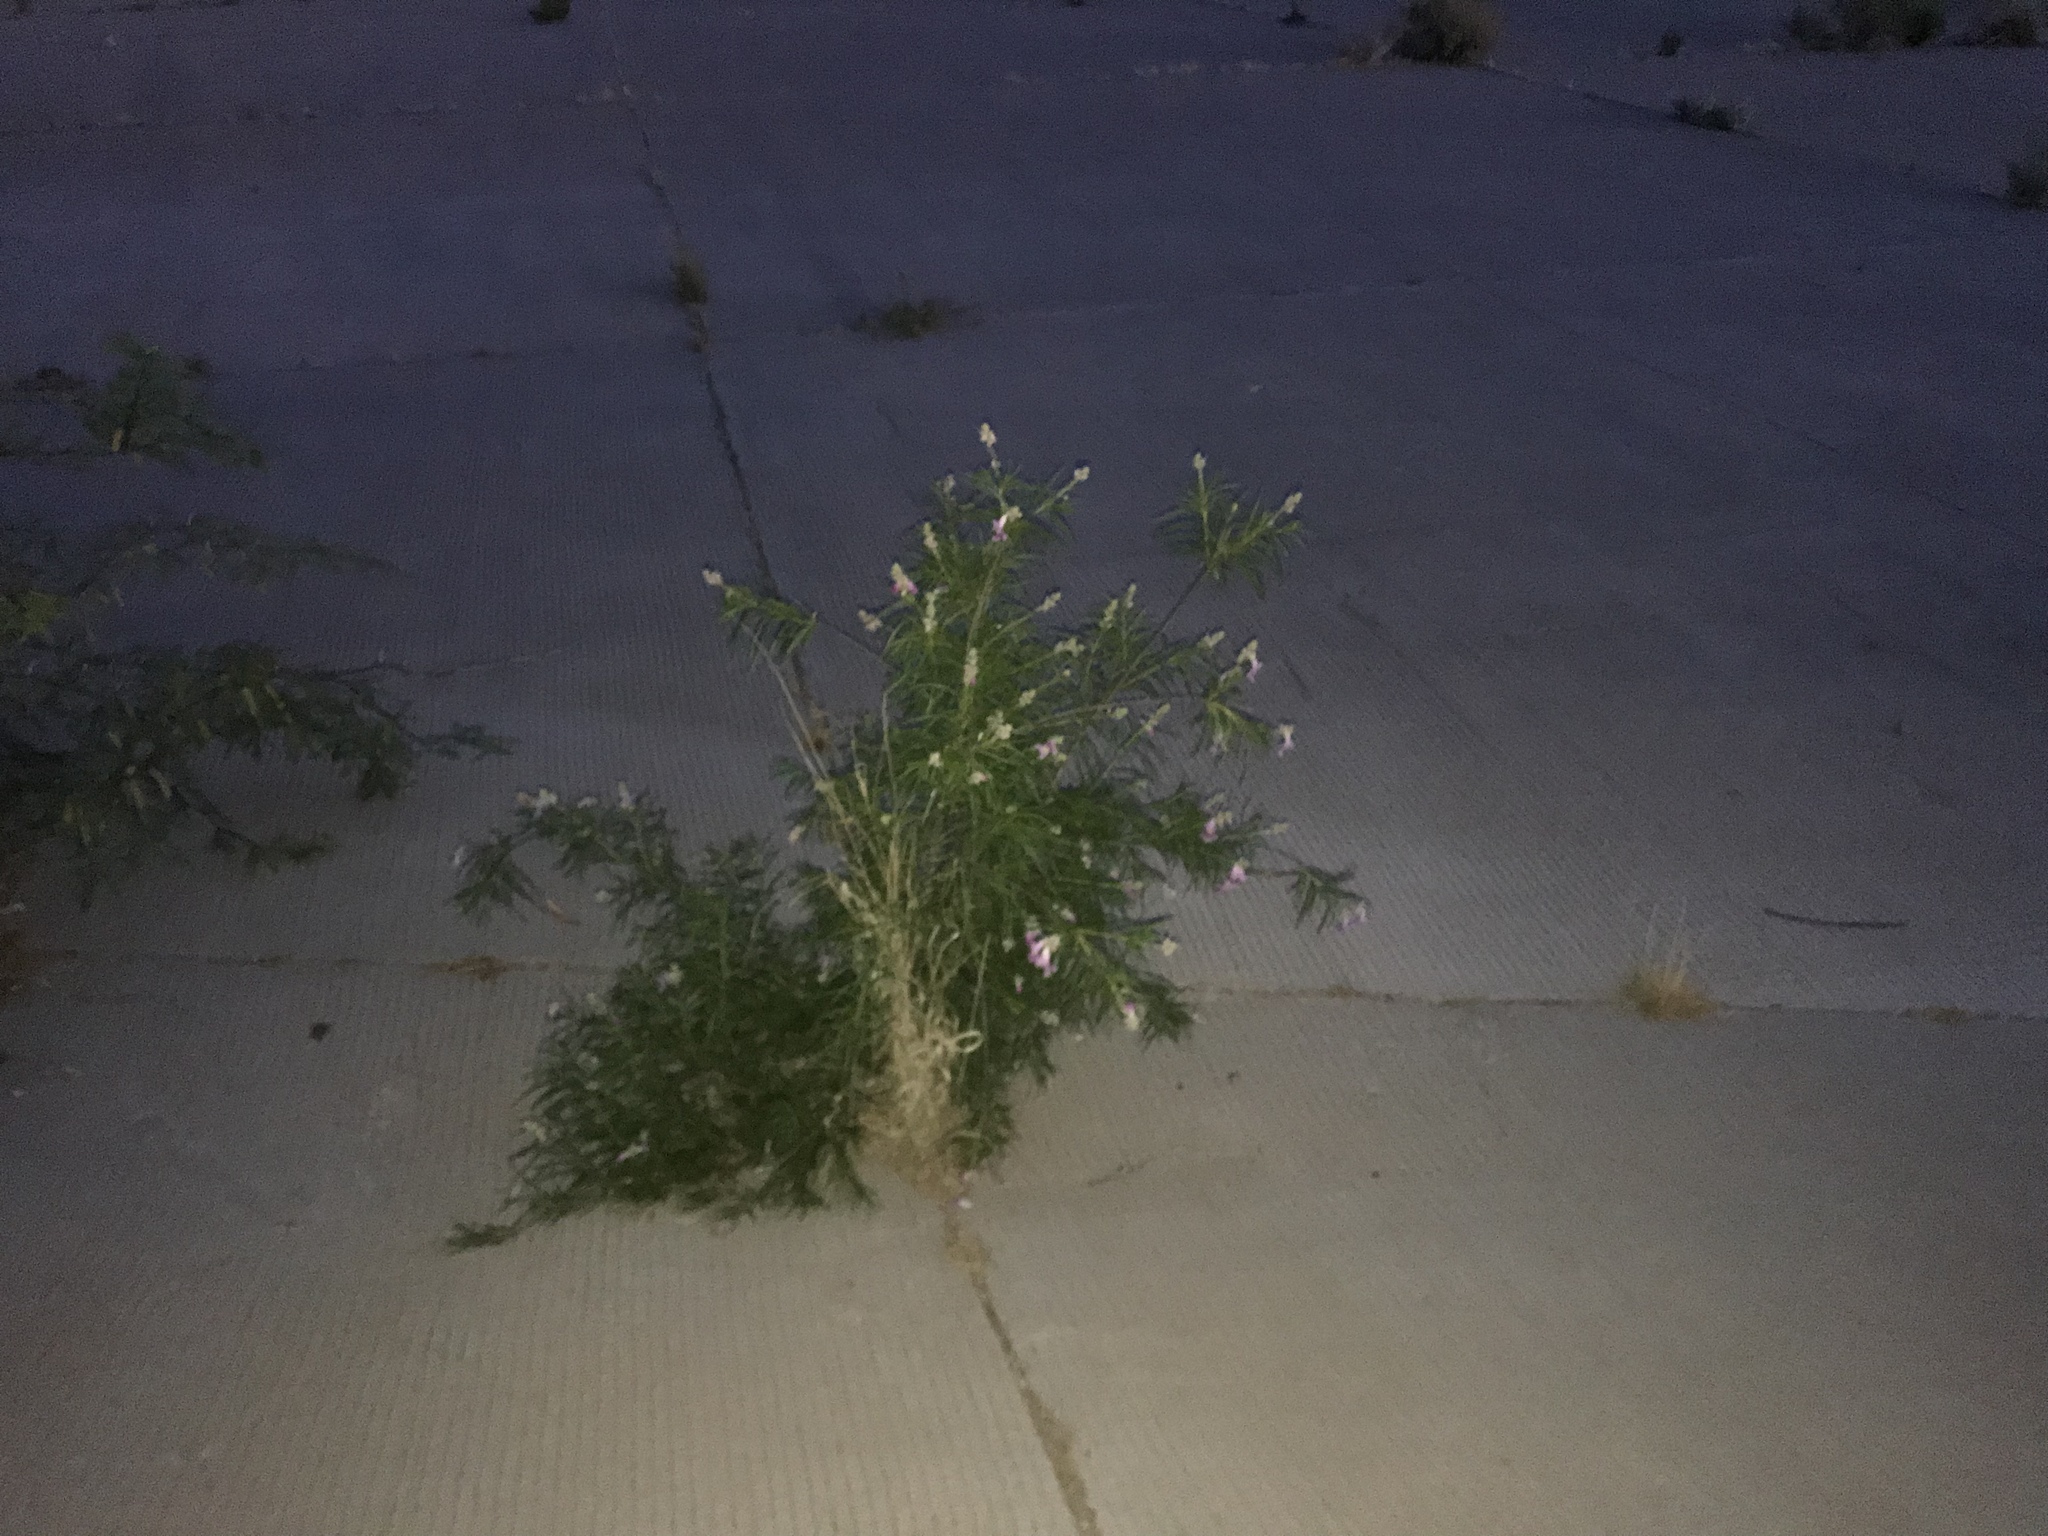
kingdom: Plantae
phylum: Tracheophyta
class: Magnoliopsida
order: Lamiales
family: Bignoniaceae
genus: Chilopsis
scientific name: Chilopsis linearis
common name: Desert-willow
